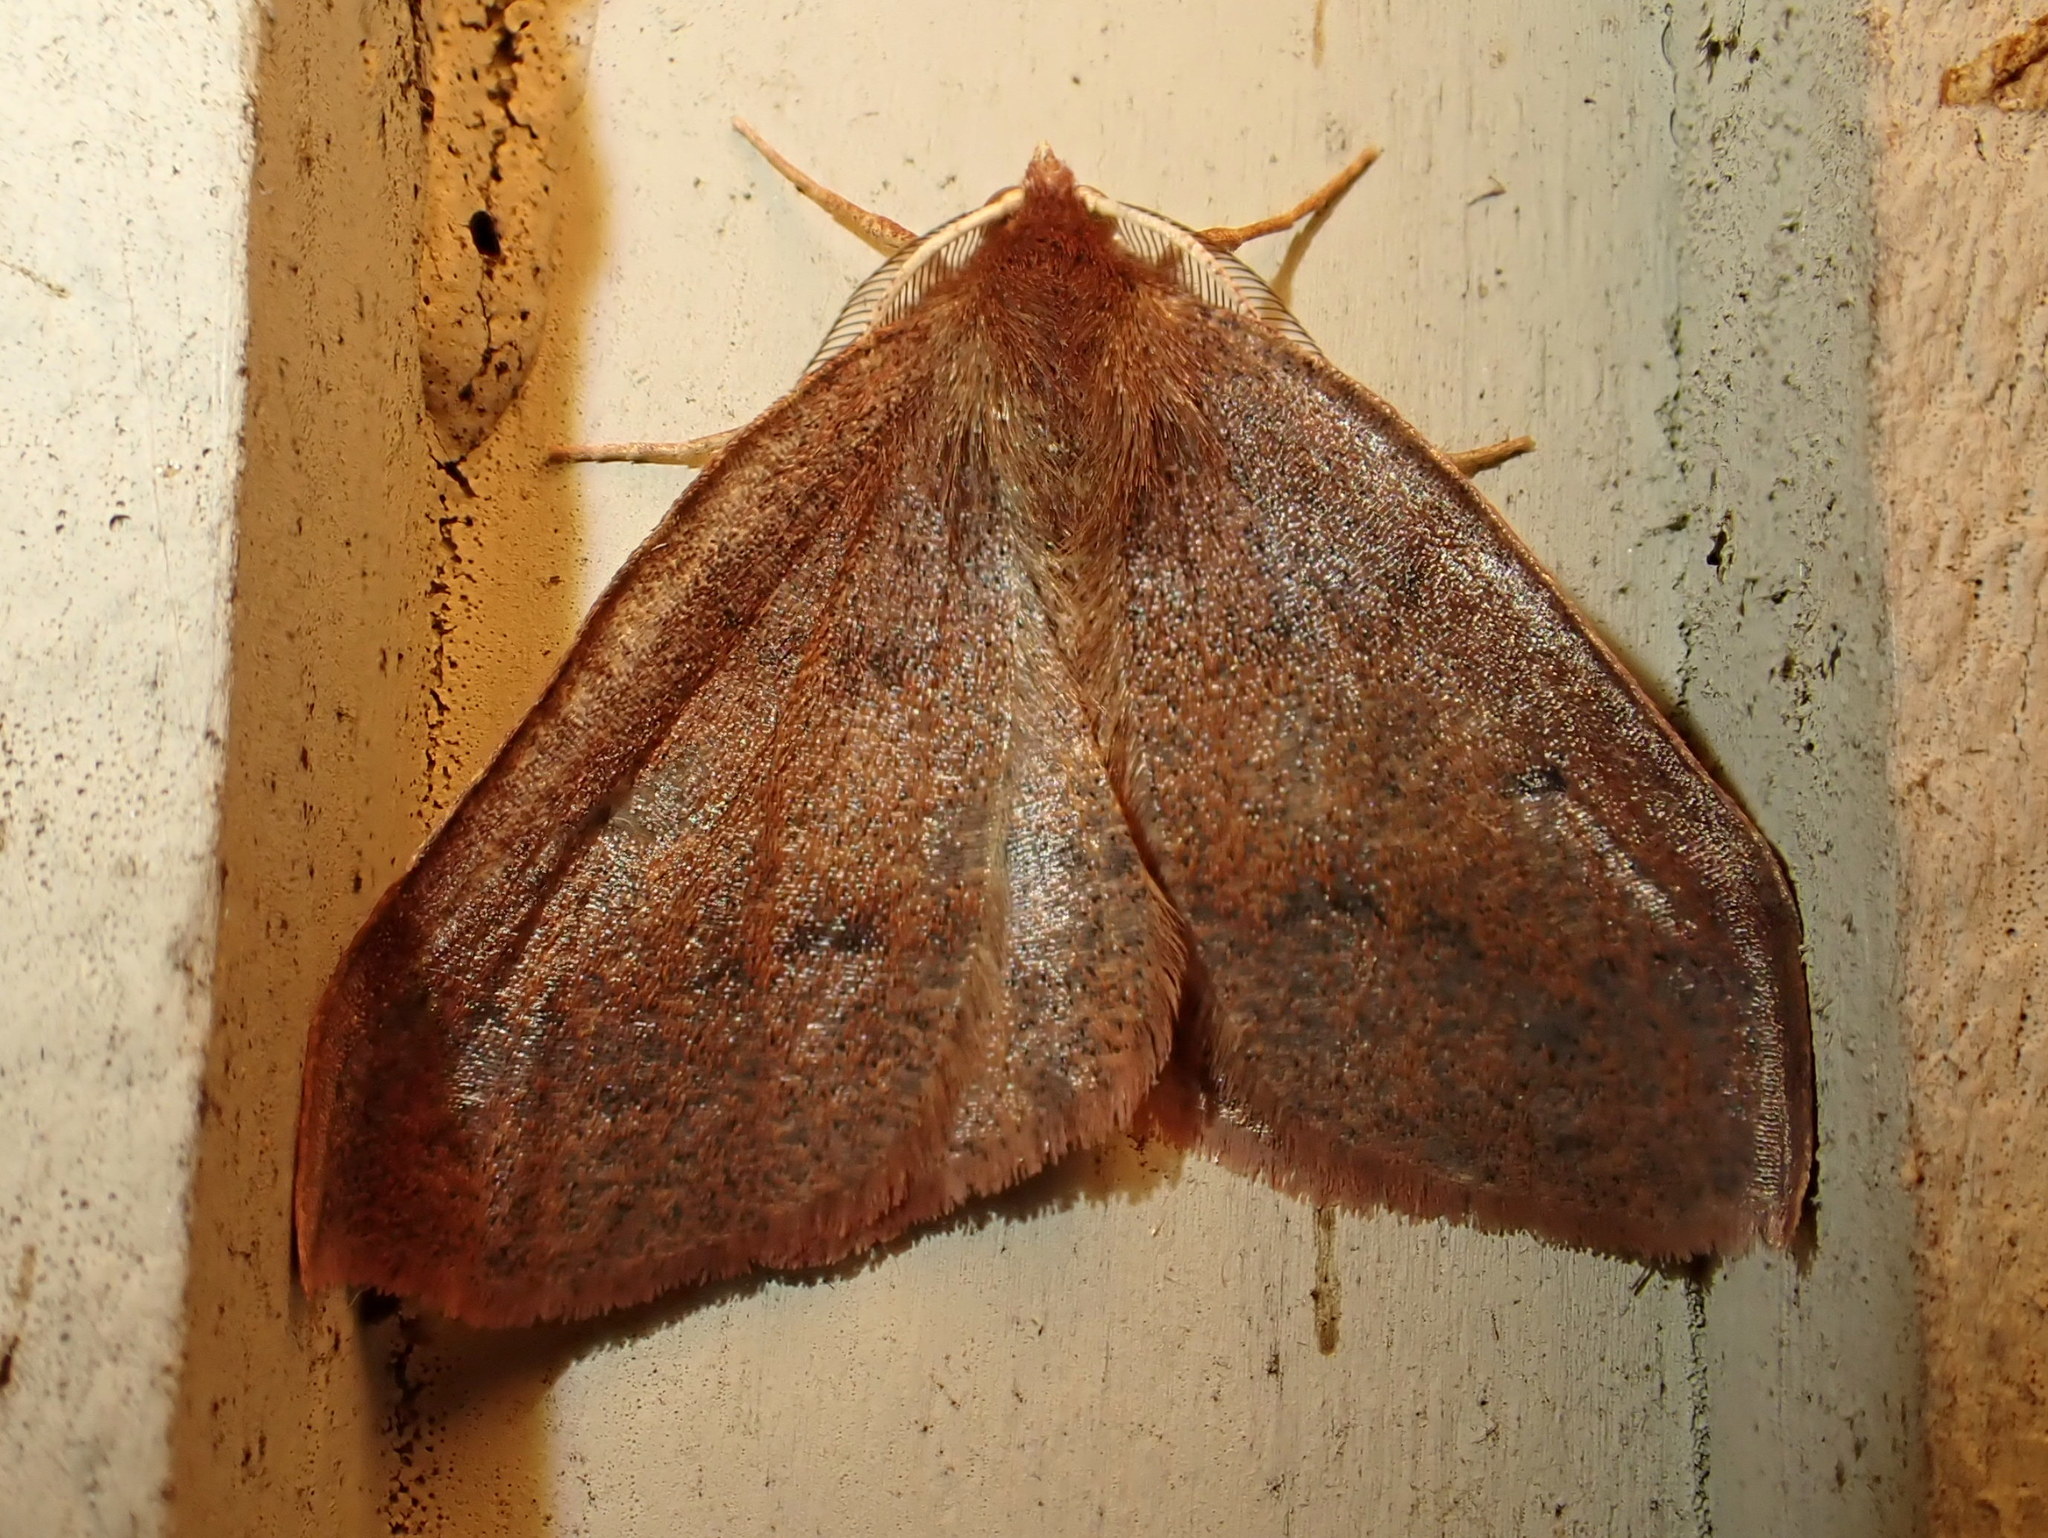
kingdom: Animalia
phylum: Arthropoda
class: Insecta
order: Lepidoptera
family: Geometridae
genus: Metarranthis
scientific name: Metarranthis duaria
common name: Ruddy metarranthis moth
